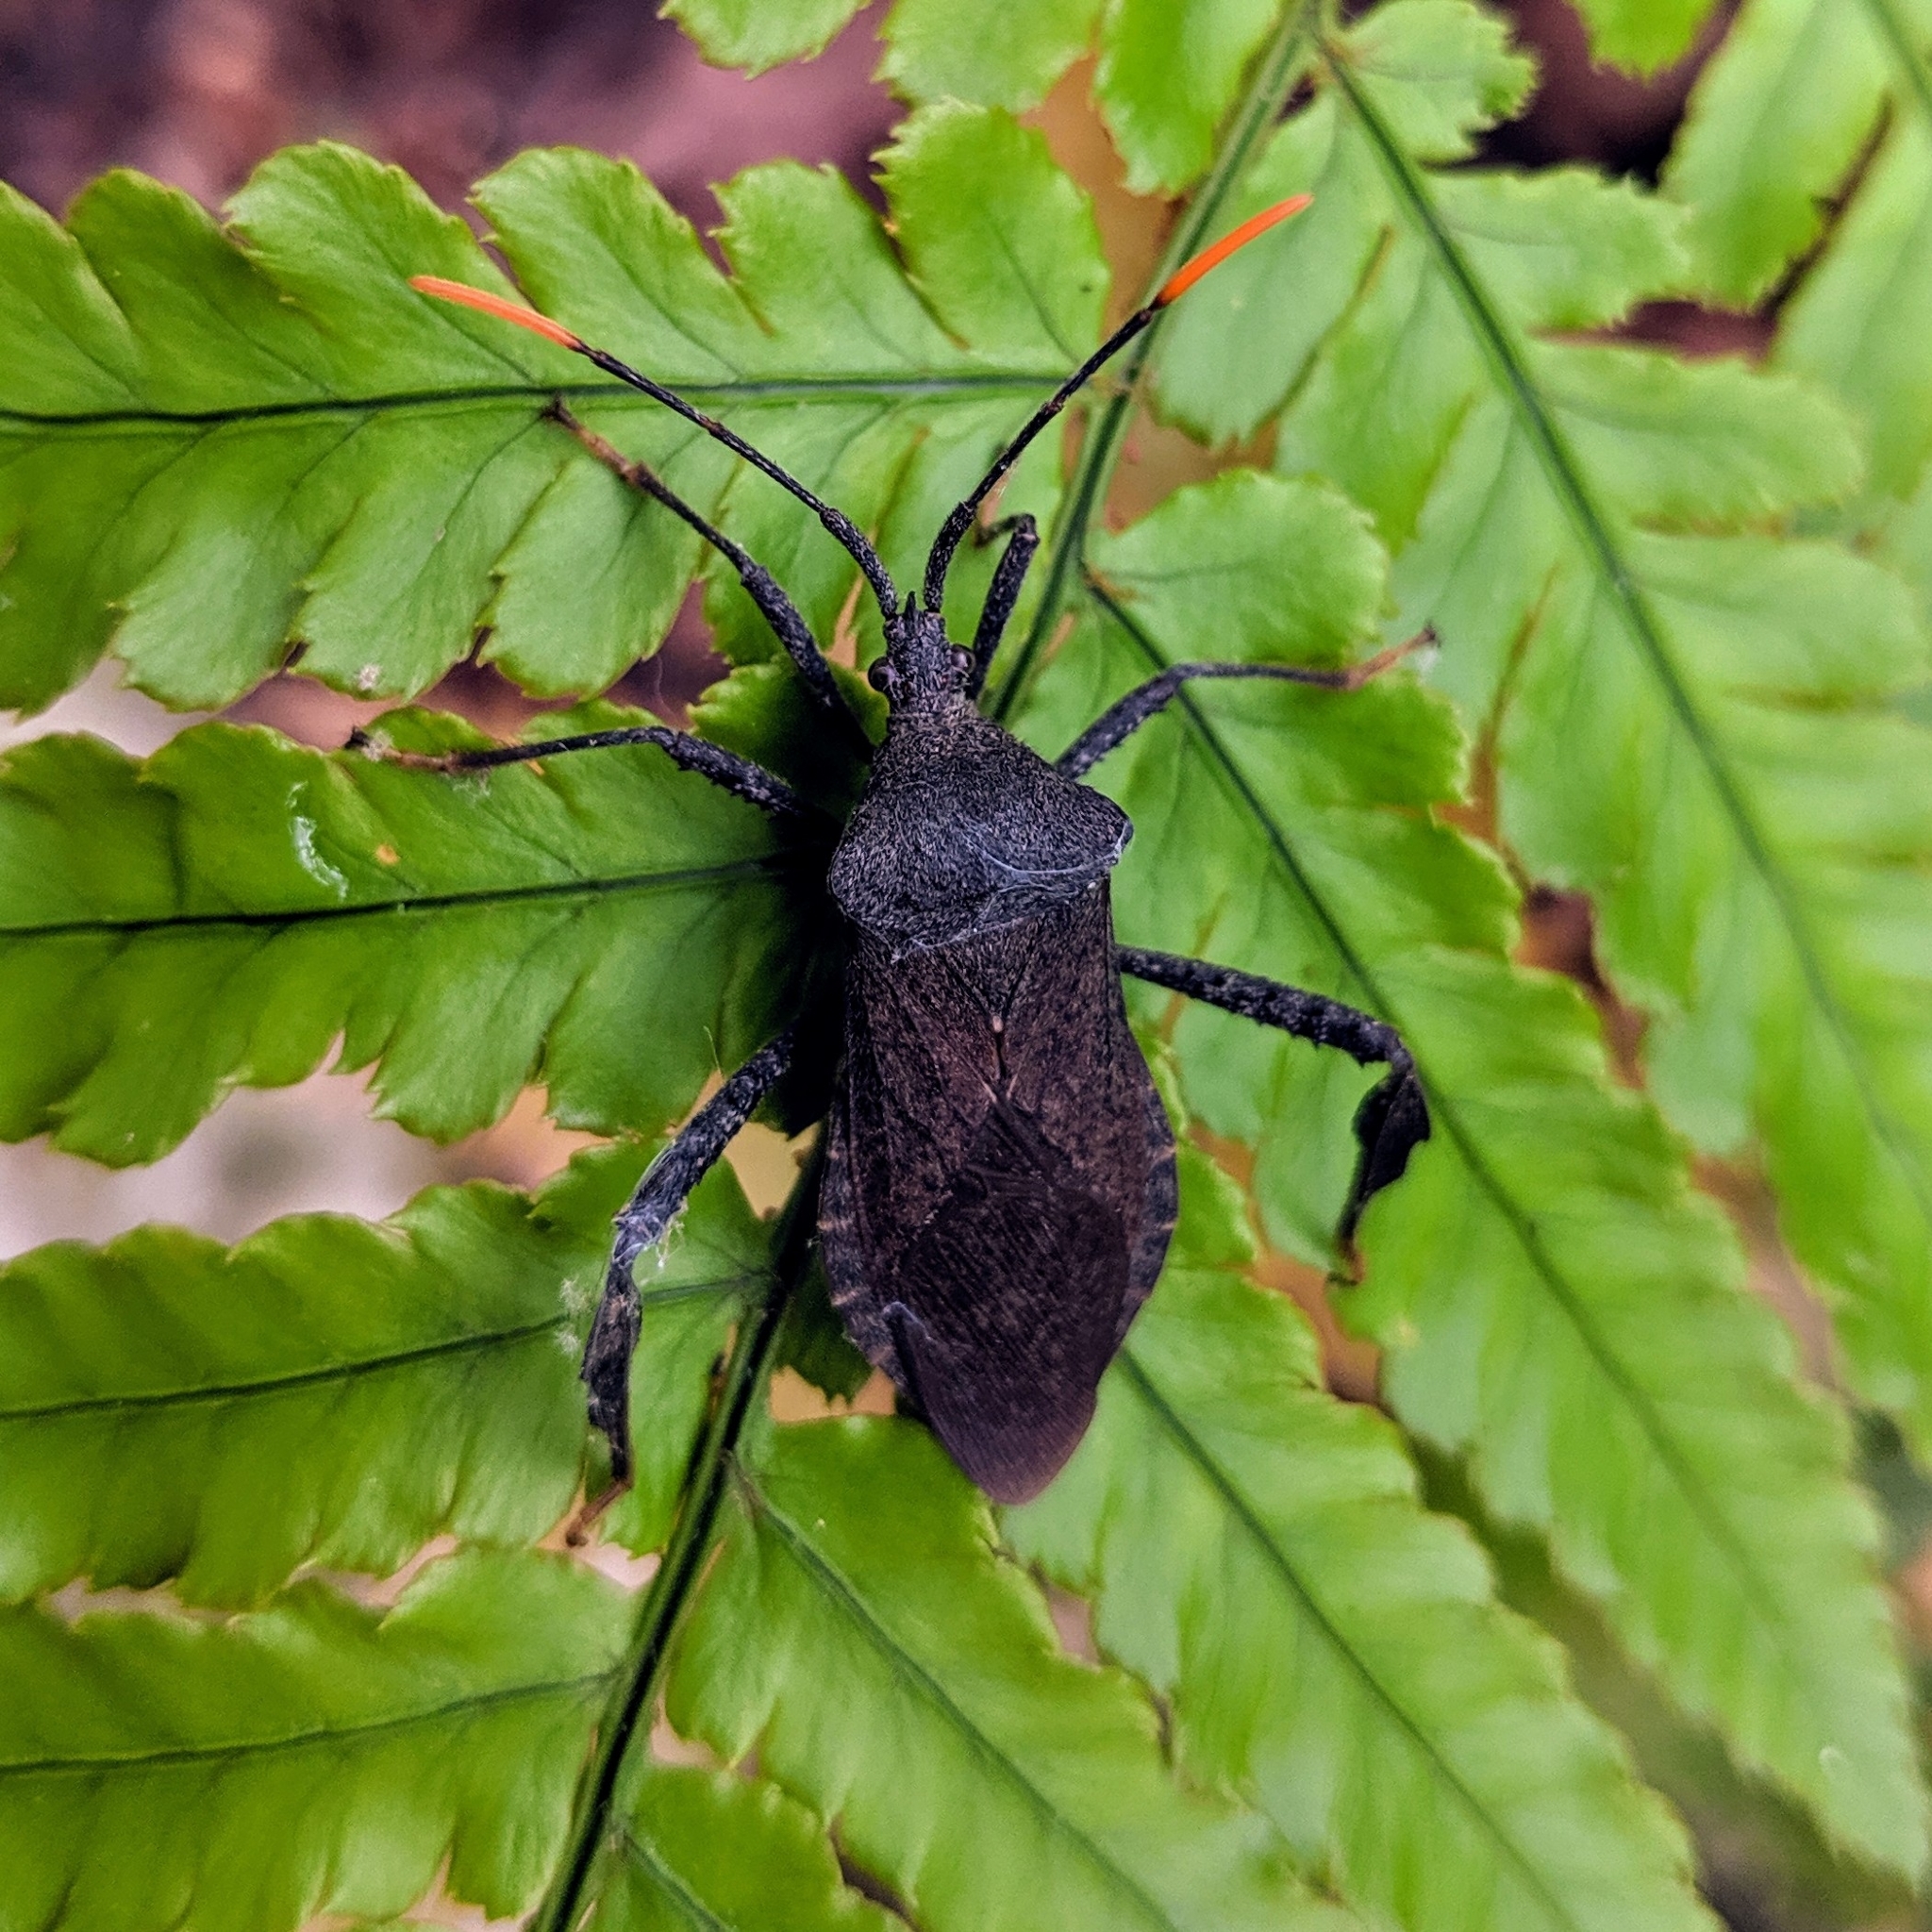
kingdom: Animalia
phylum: Arthropoda
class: Insecta
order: Hemiptera
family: Coreidae
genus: Acanthocephala
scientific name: Acanthocephala terminalis
